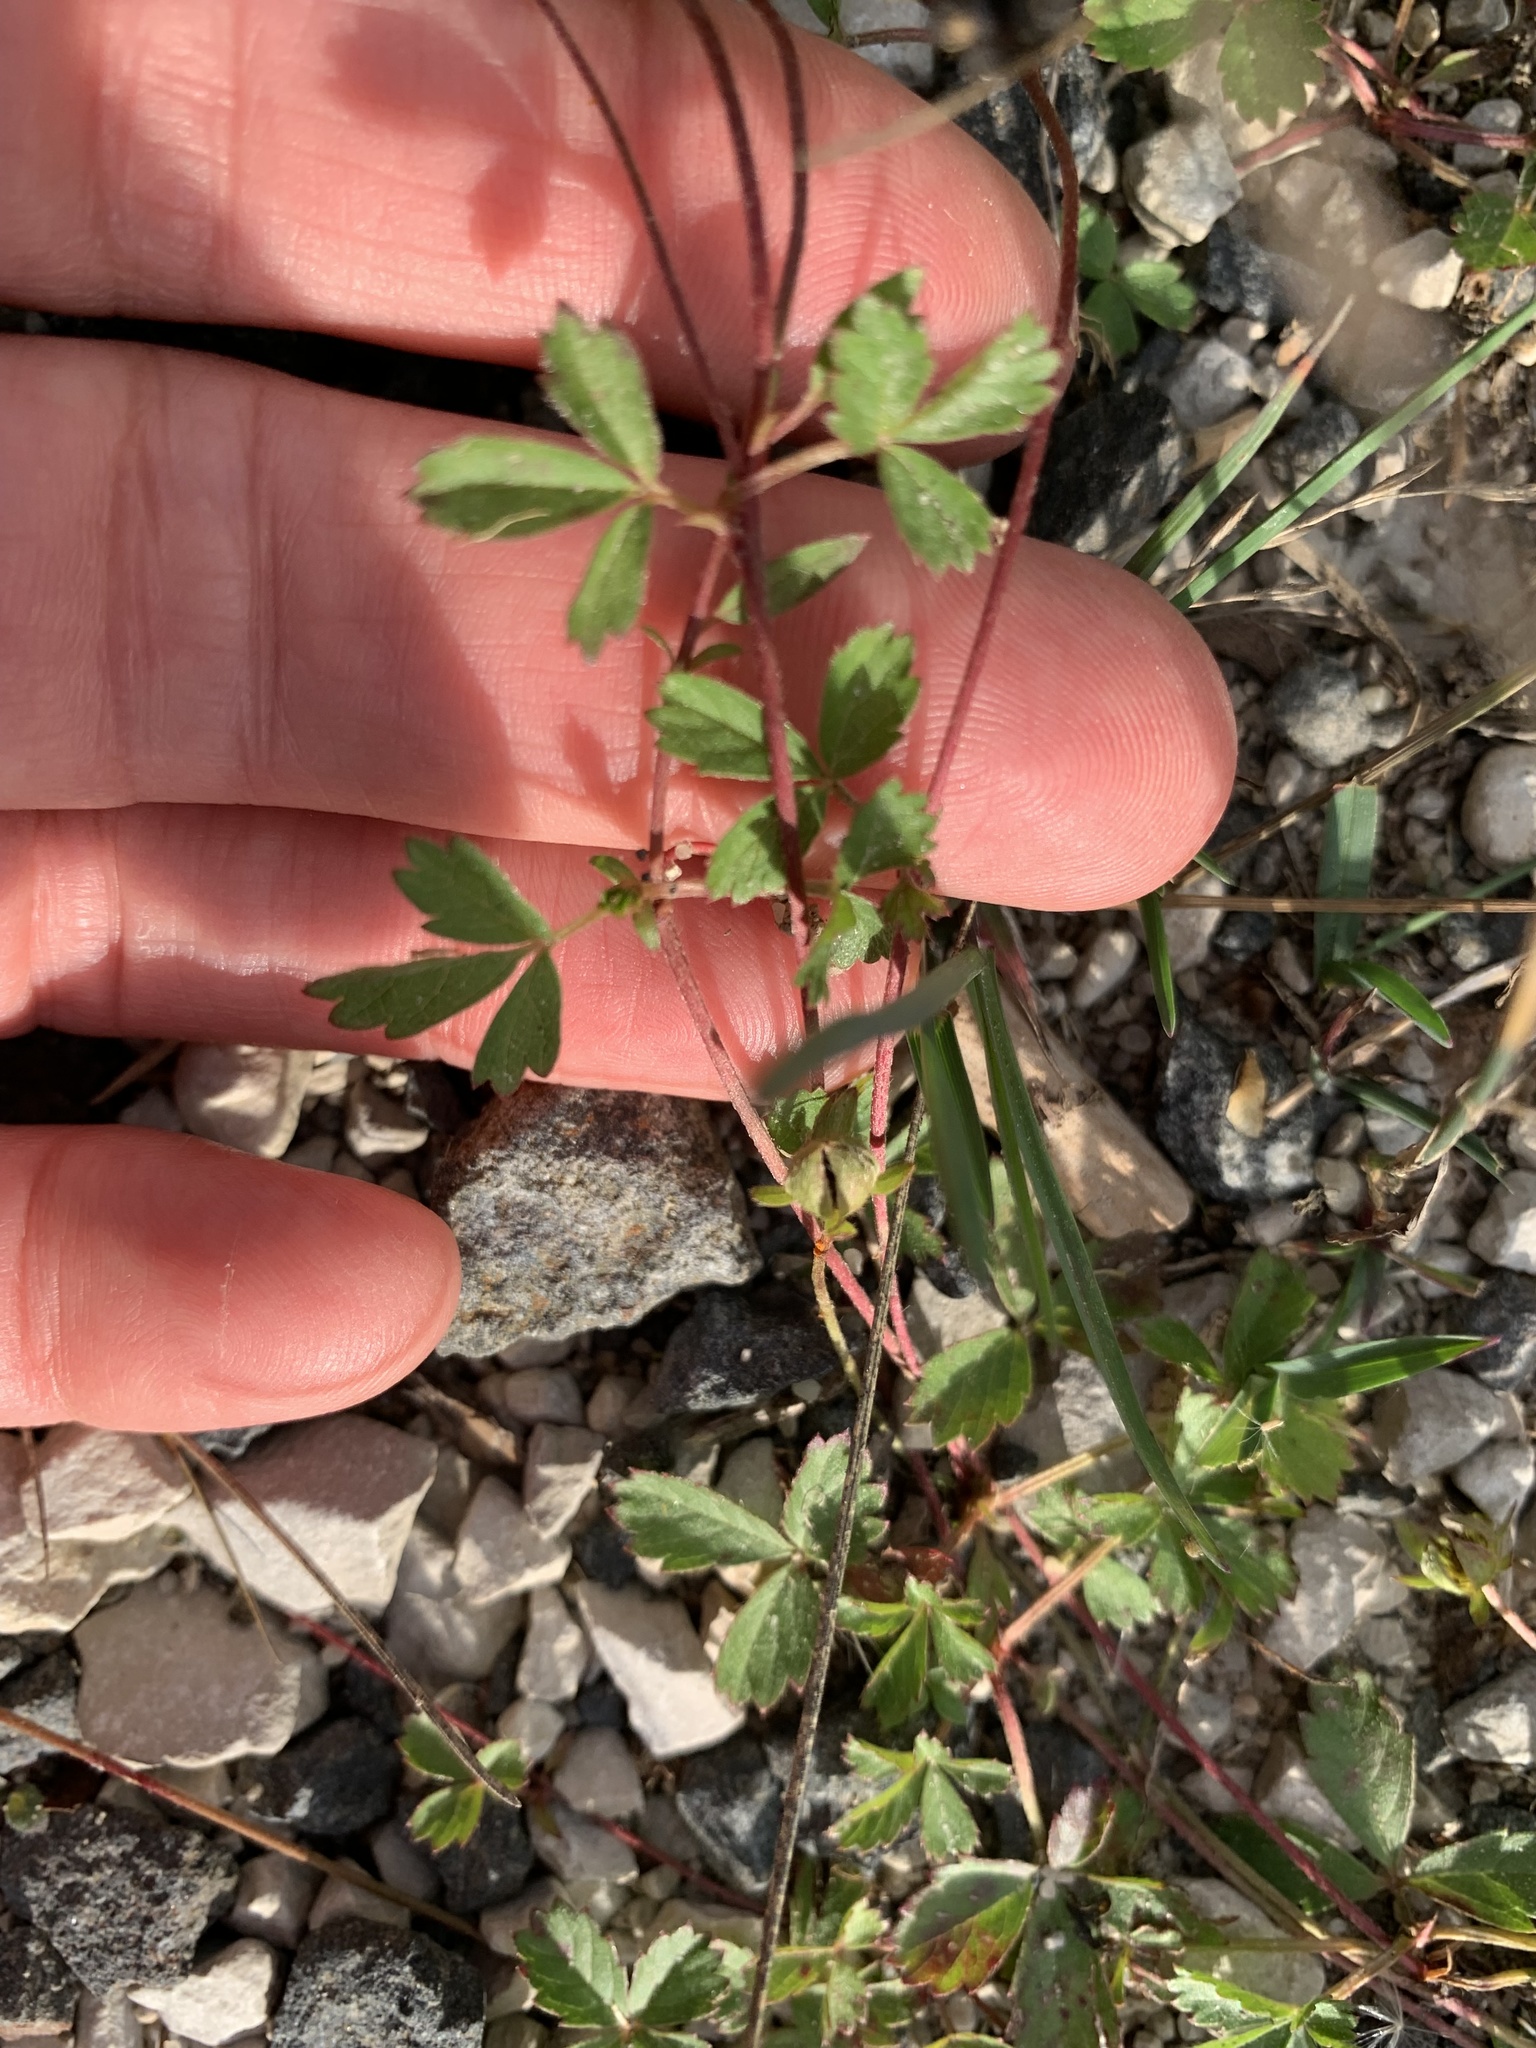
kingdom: Plantae
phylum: Tracheophyta
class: Magnoliopsida
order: Rosales
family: Rosaceae
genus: Potentilla
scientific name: Potentilla reptans
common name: Creeping cinquefoil
